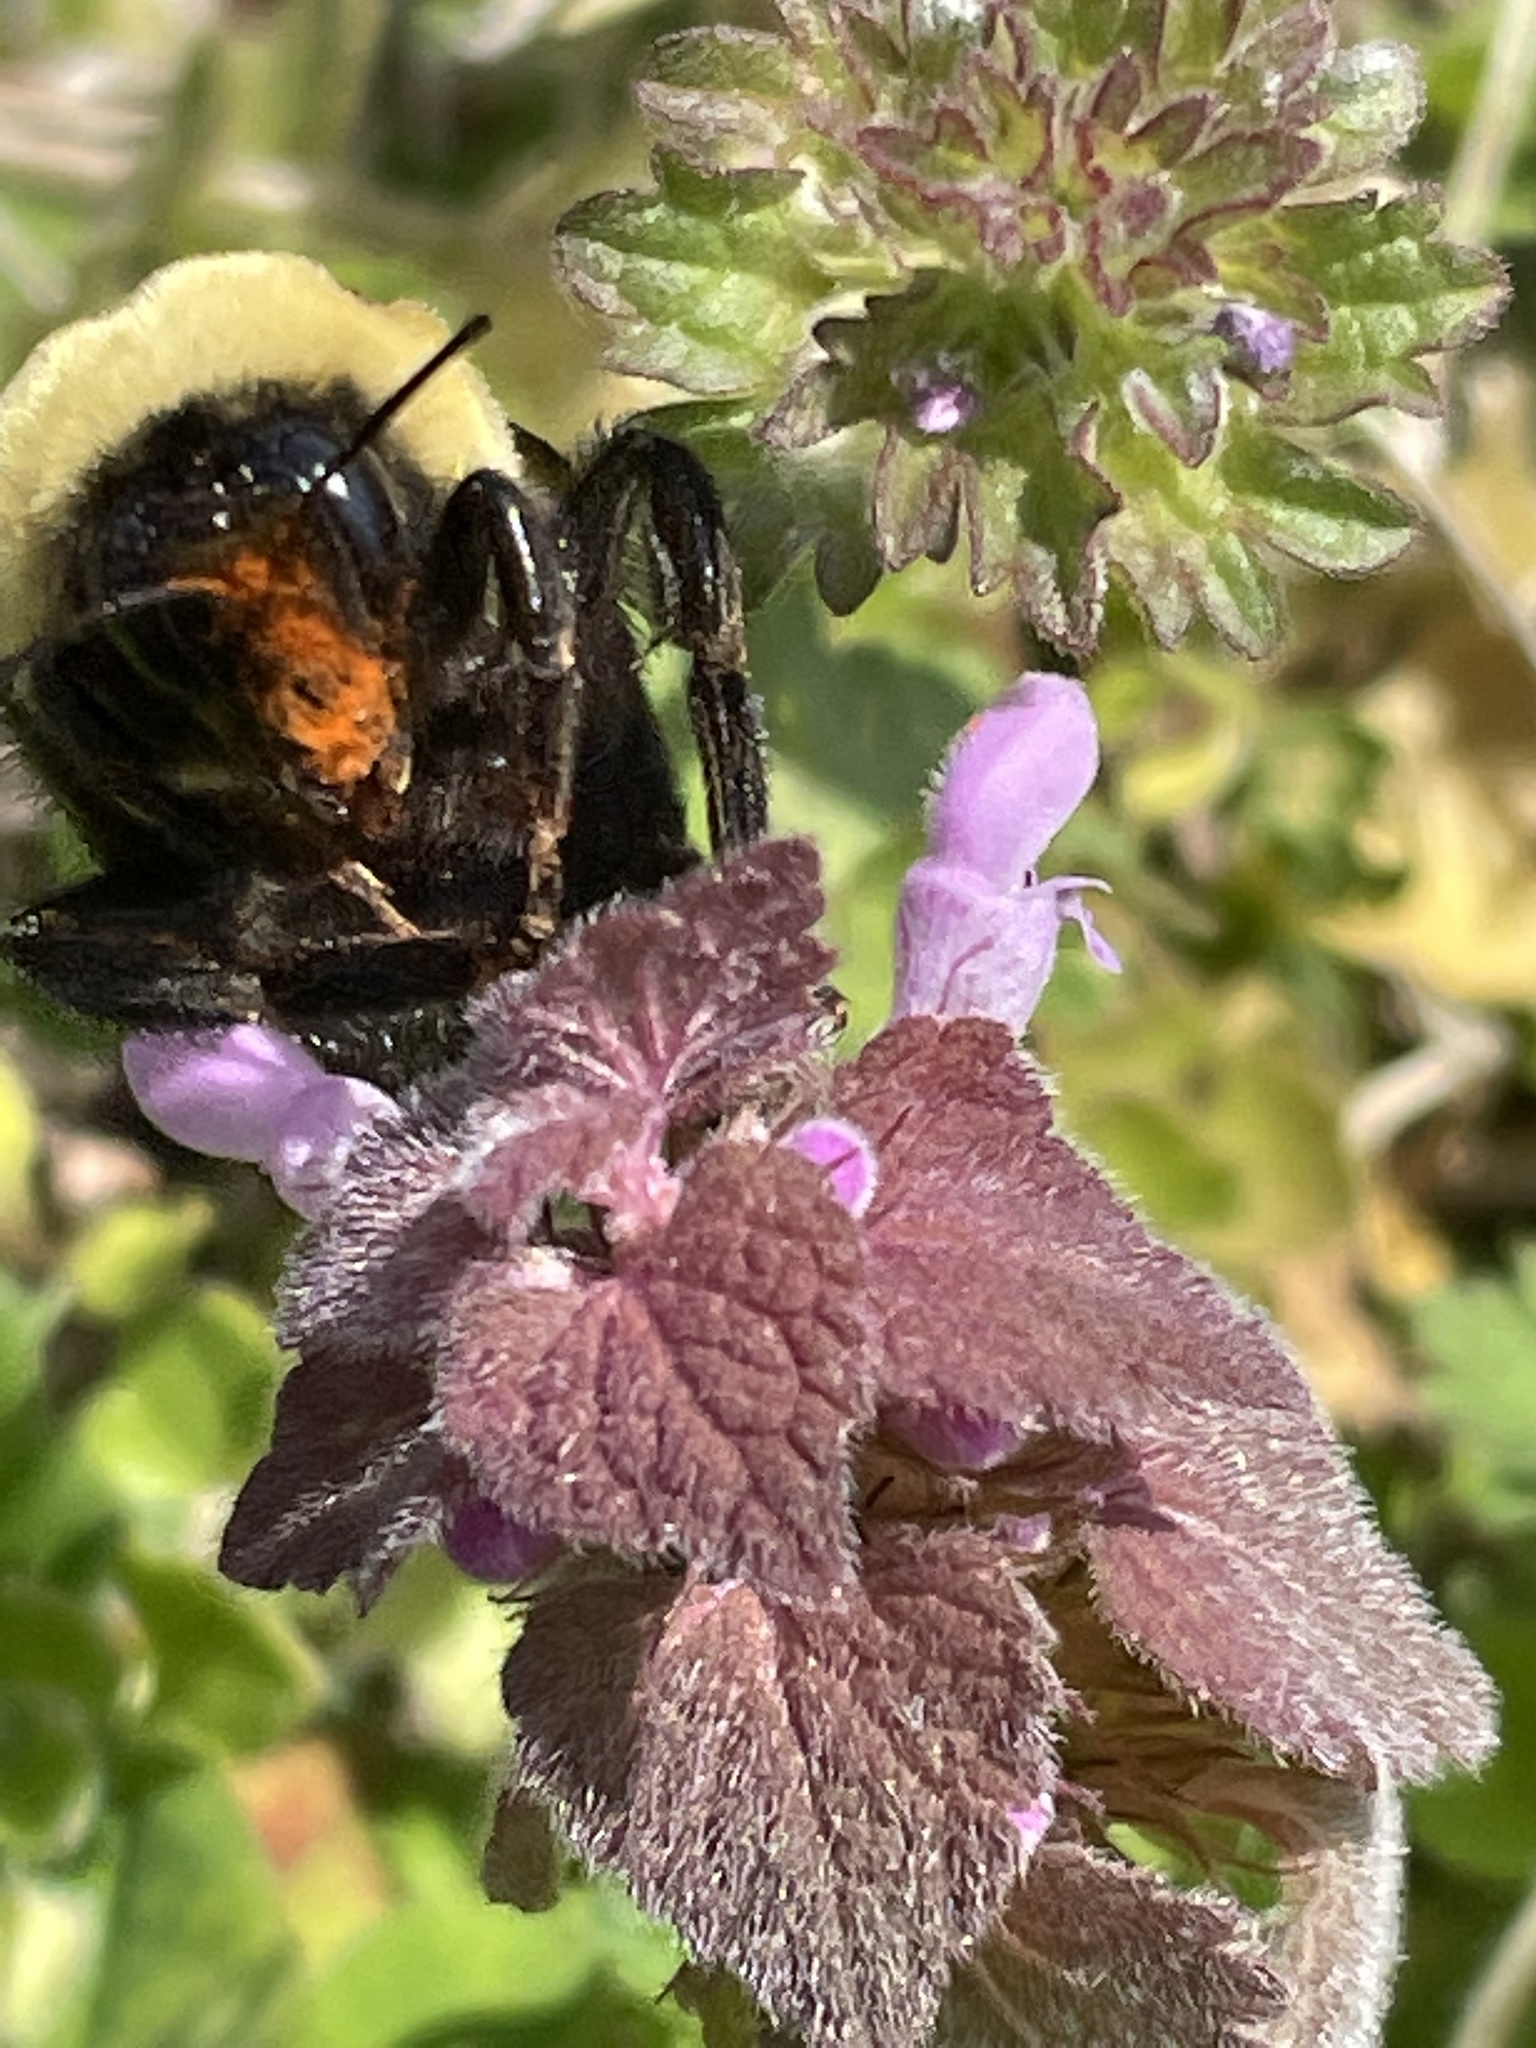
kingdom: Animalia
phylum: Arthropoda
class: Insecta
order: Hymenoptera
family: Apidae
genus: Bombus
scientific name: Bombus griseocollis
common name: Brown-belted bumble bee
